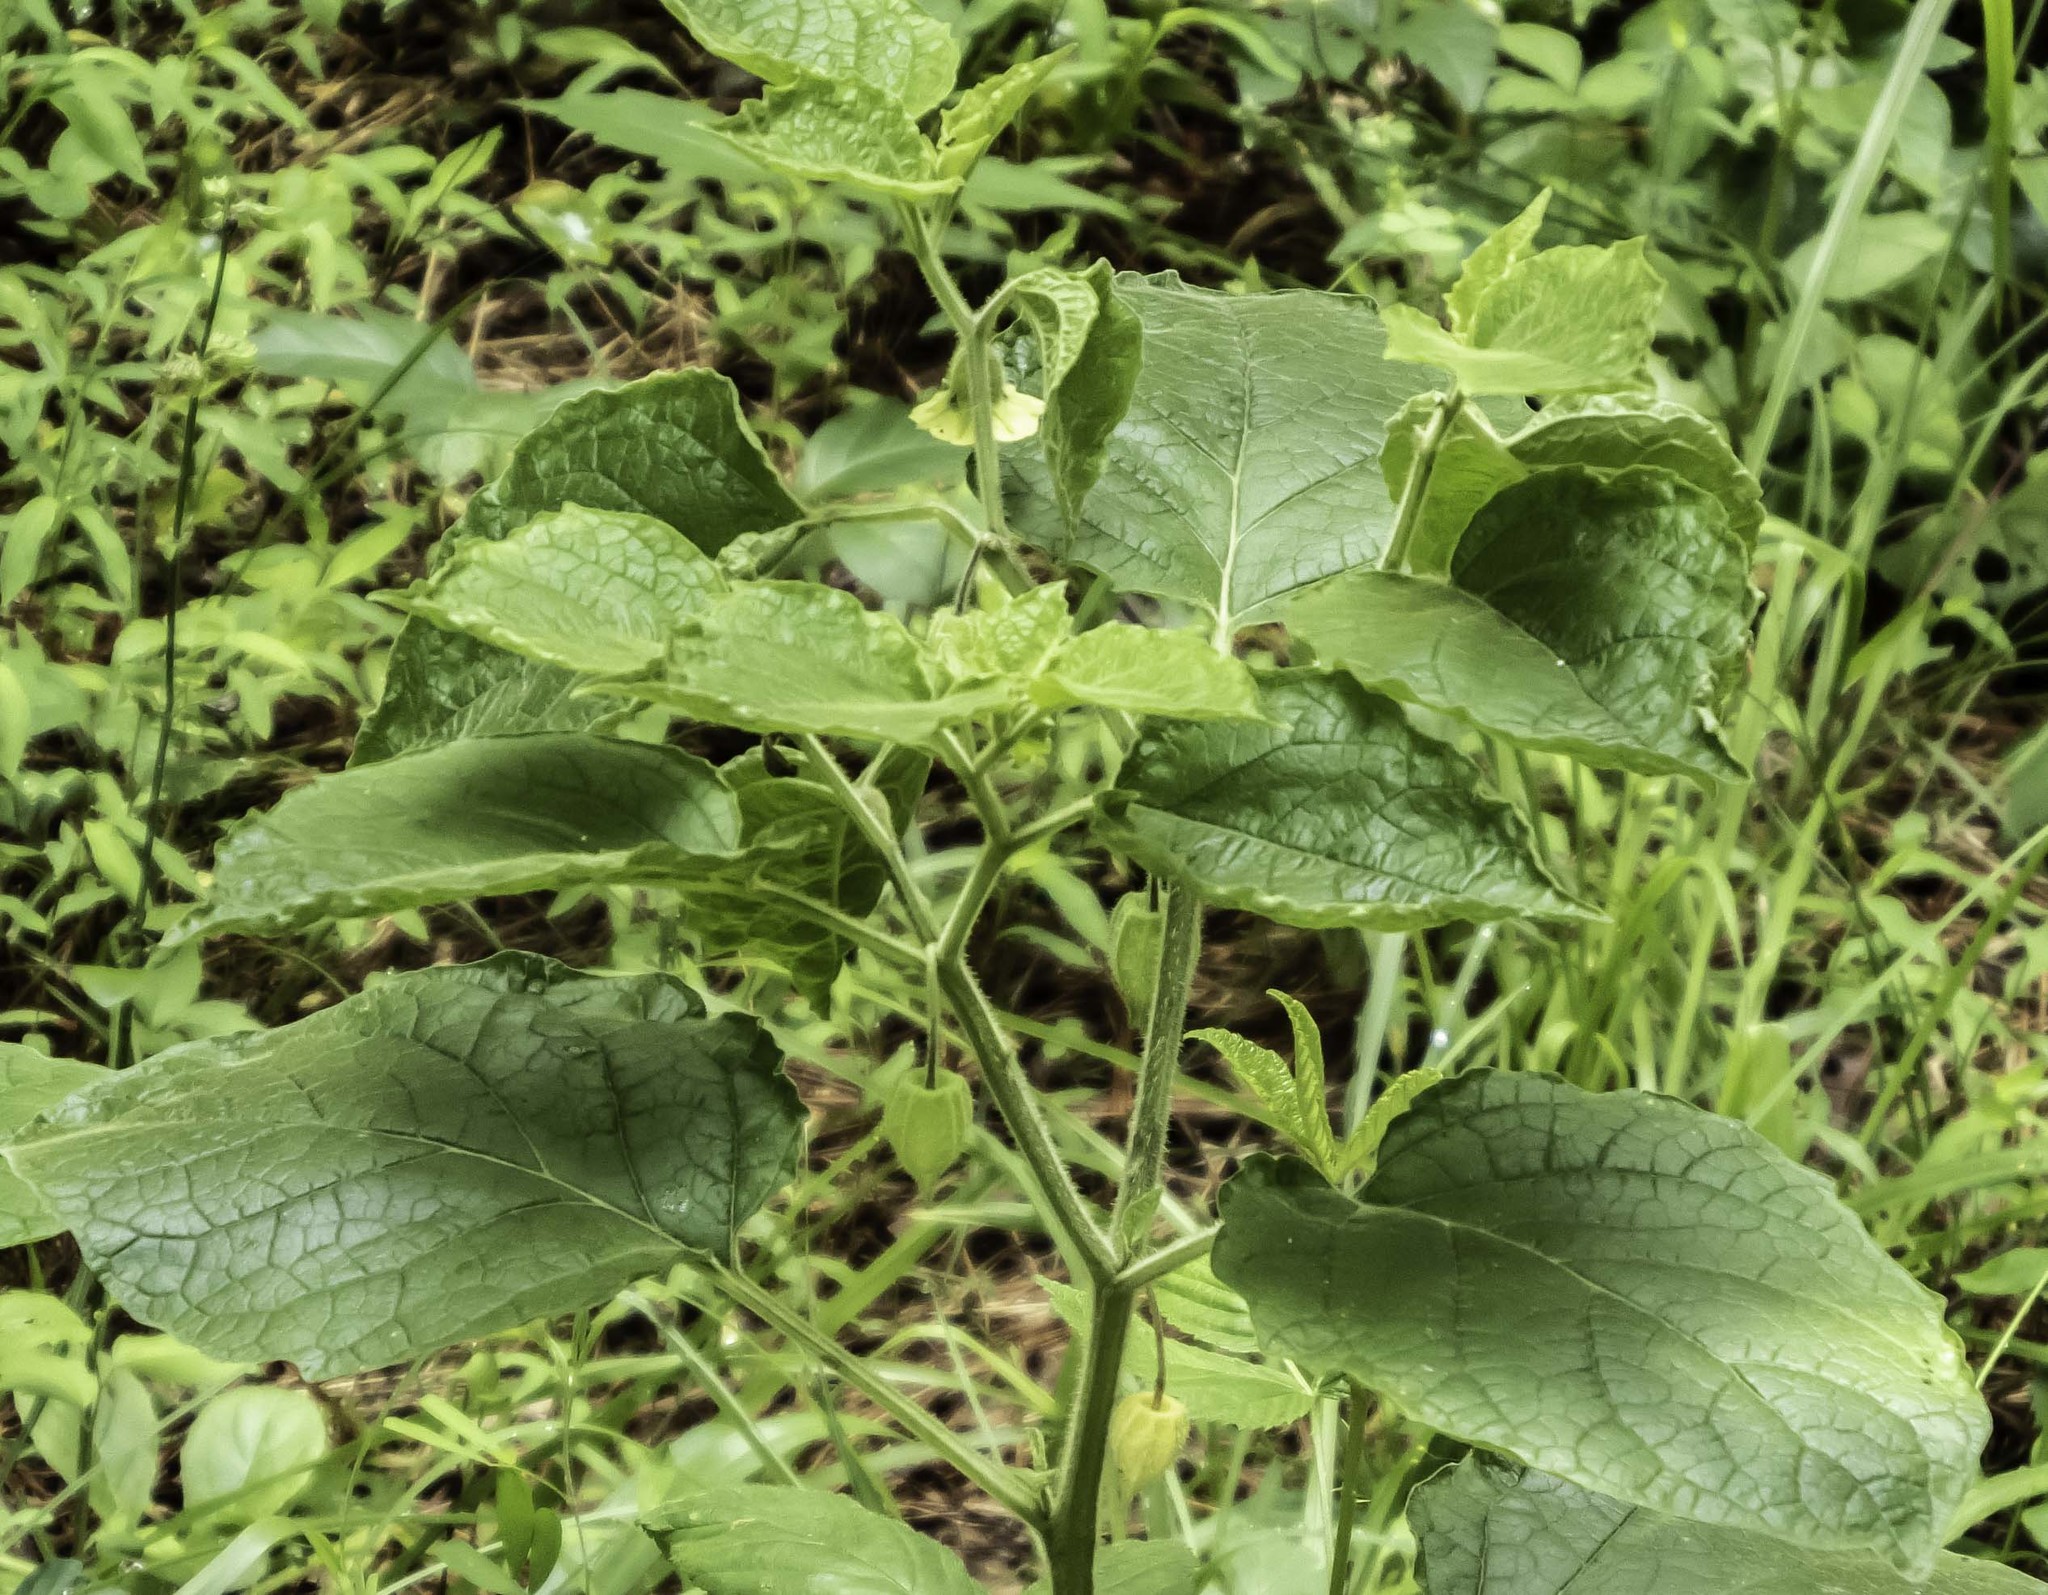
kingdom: Plantae
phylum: Tracheophyta
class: Magnoliopsida
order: Solanales
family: Solanaceae
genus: Physalis
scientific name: Physalis heterophylla
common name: Clammy ground-cherry
